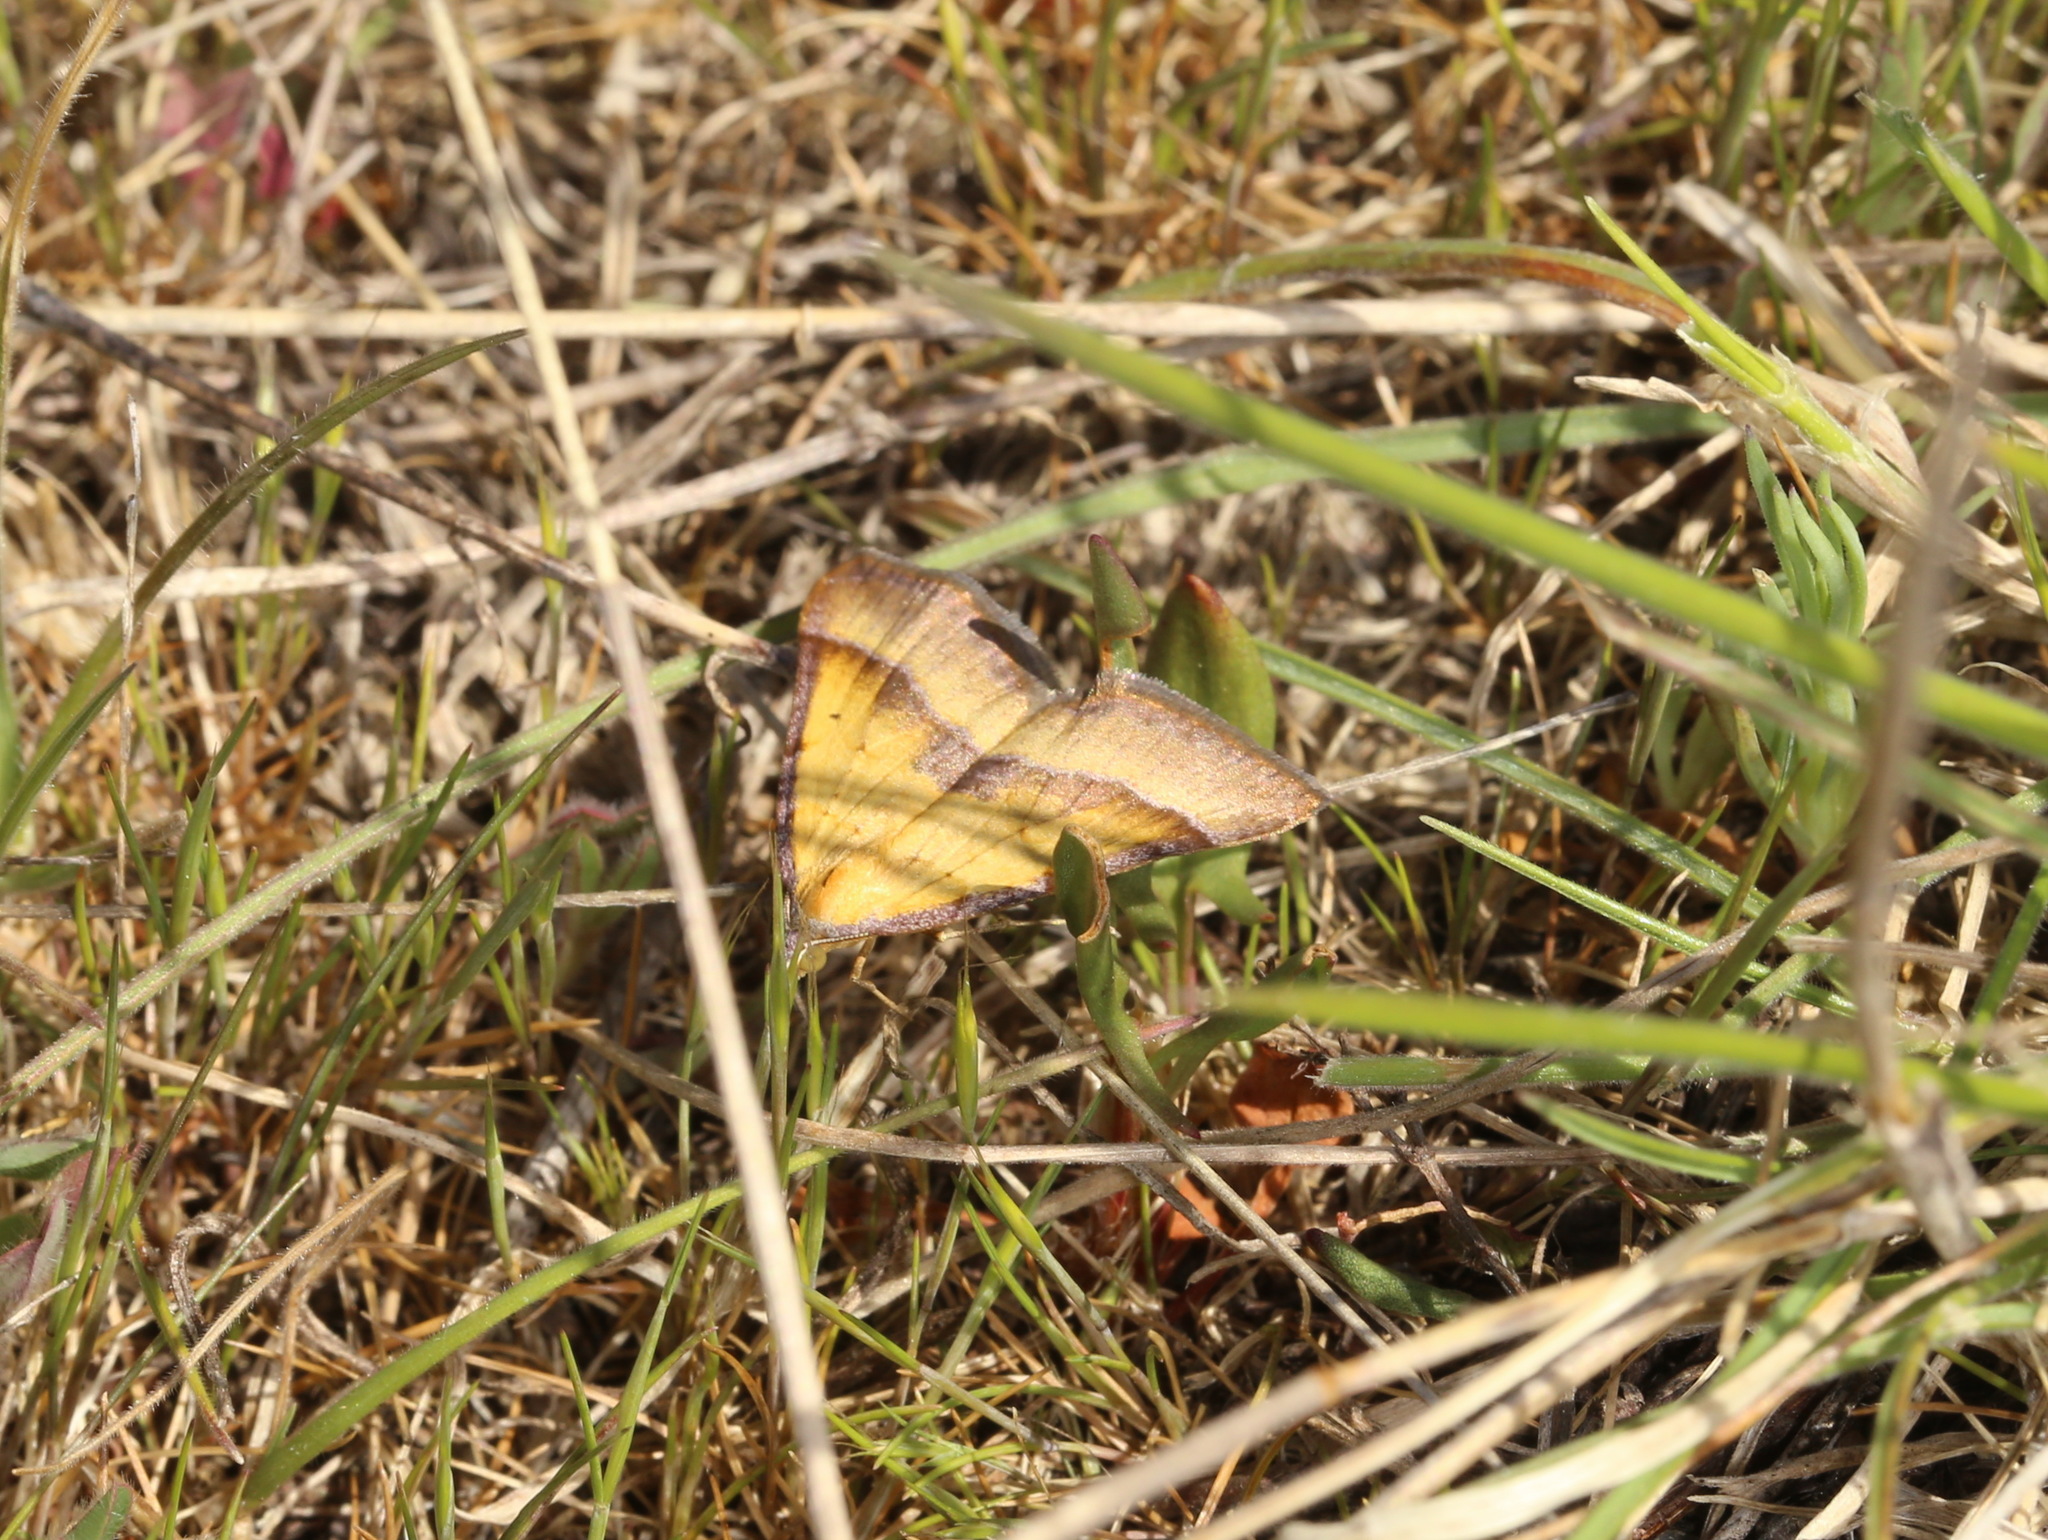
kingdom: Animalia
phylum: Arthropoda
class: Insecta
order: Lepidoptera
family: Geometridae
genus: Anachloris
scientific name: Anachloris subochraria
